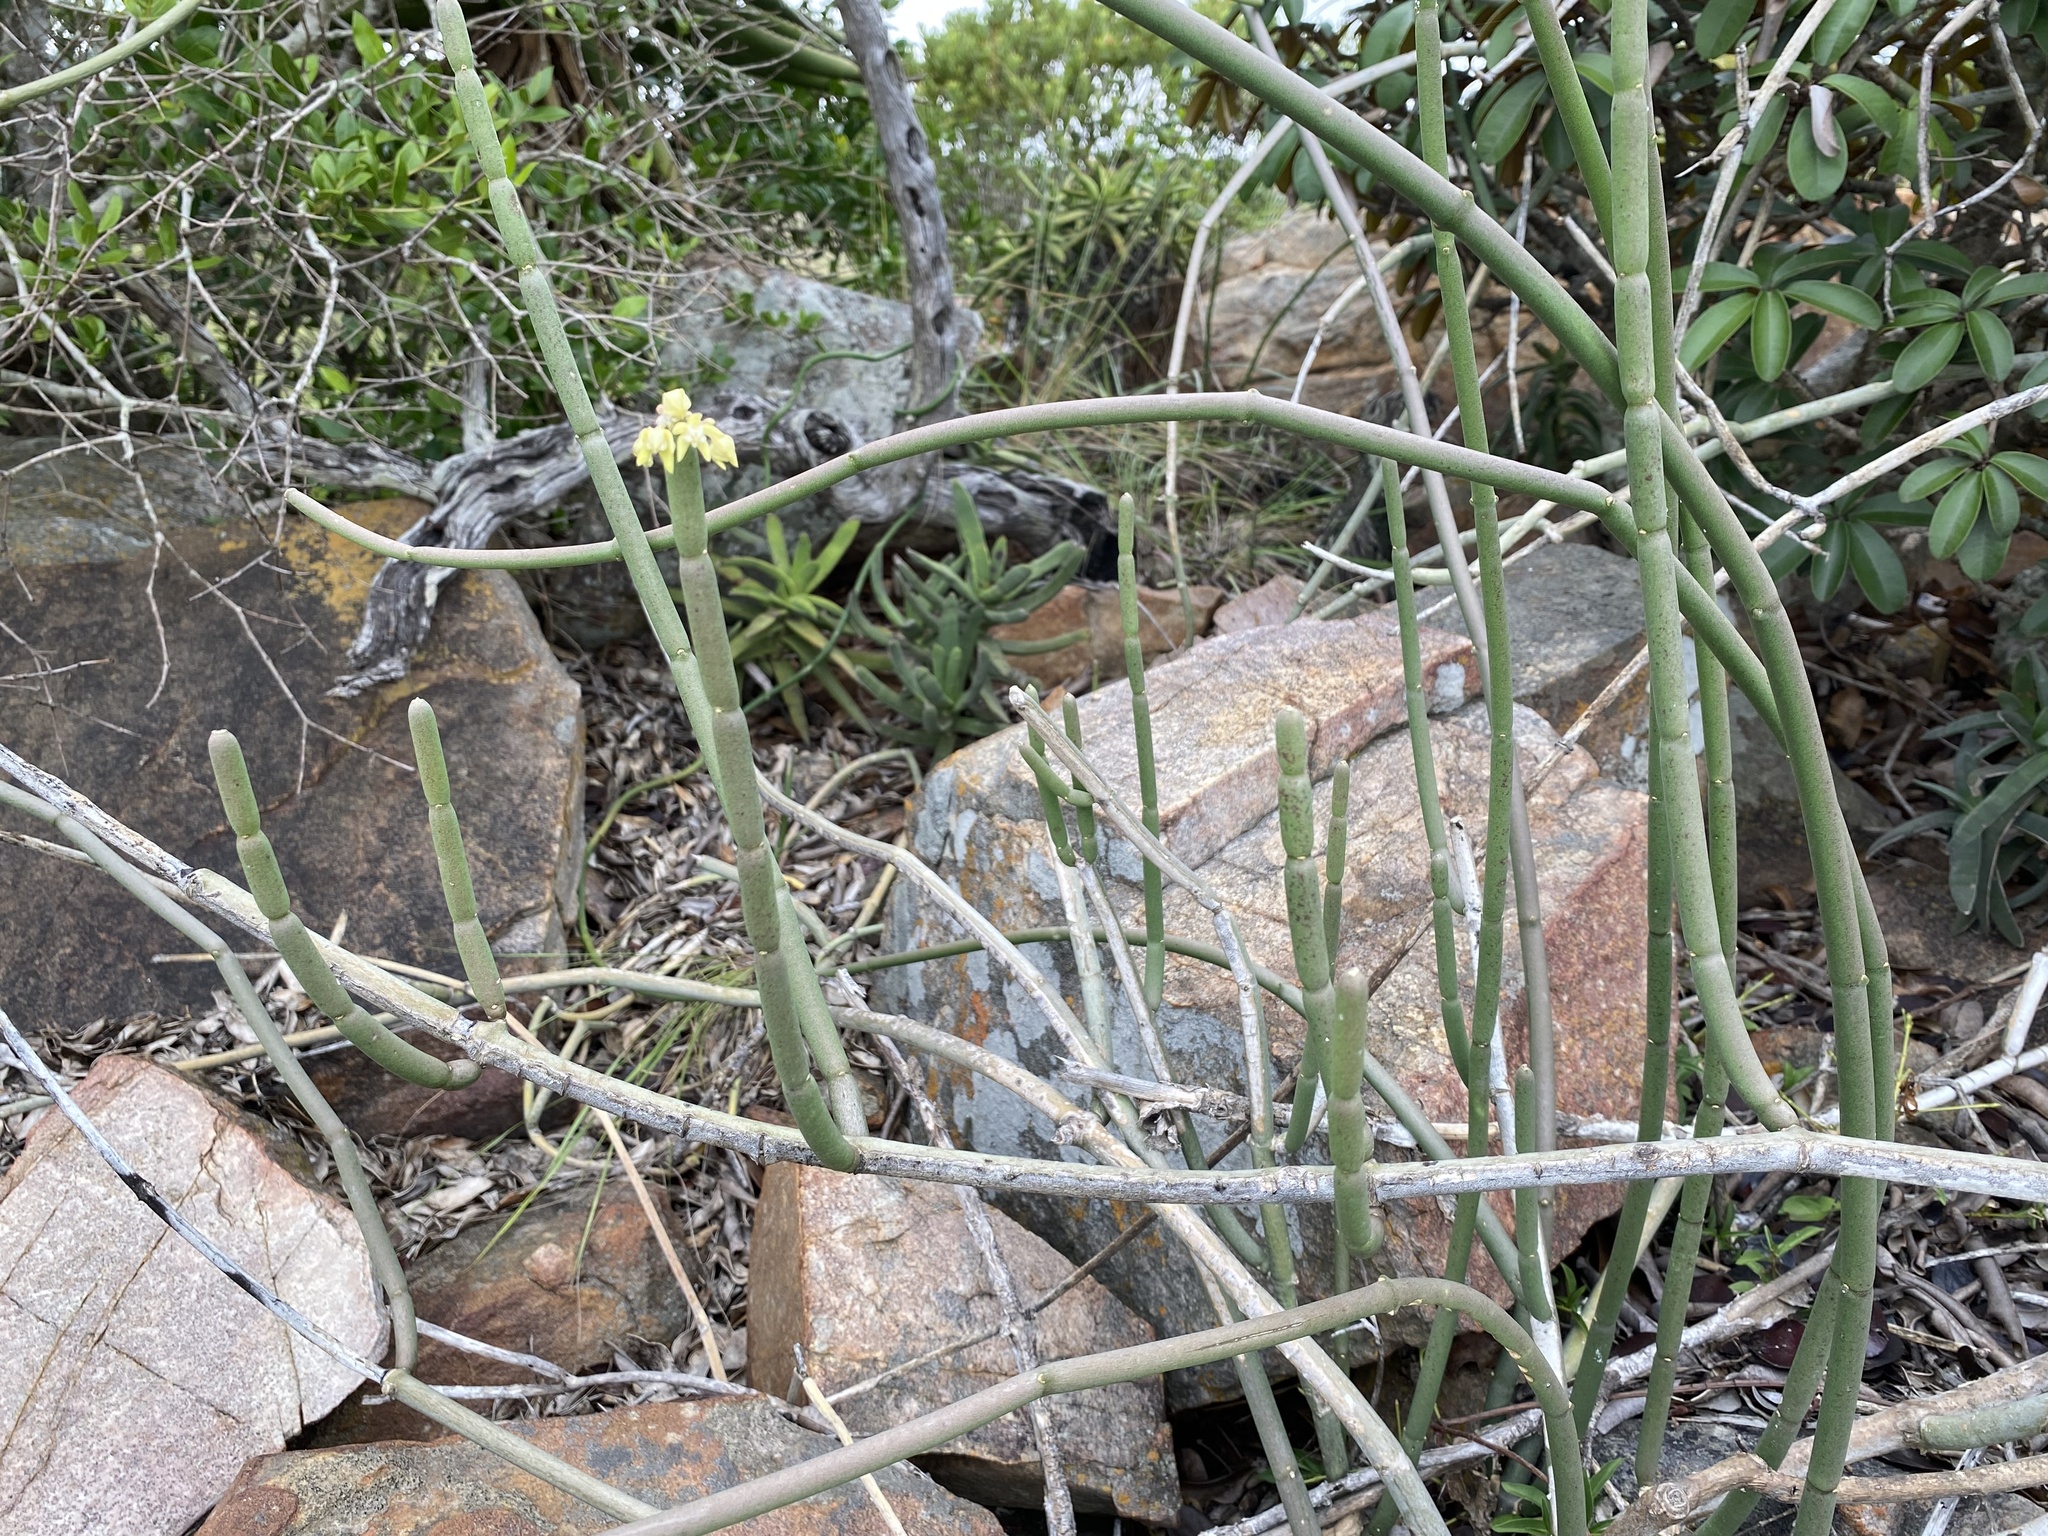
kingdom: Plantae
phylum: Tracheophyta
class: Magnoliopsida
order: Gentianales
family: Apocynaceae
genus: Cynanchum
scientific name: Cynanchum viminale
